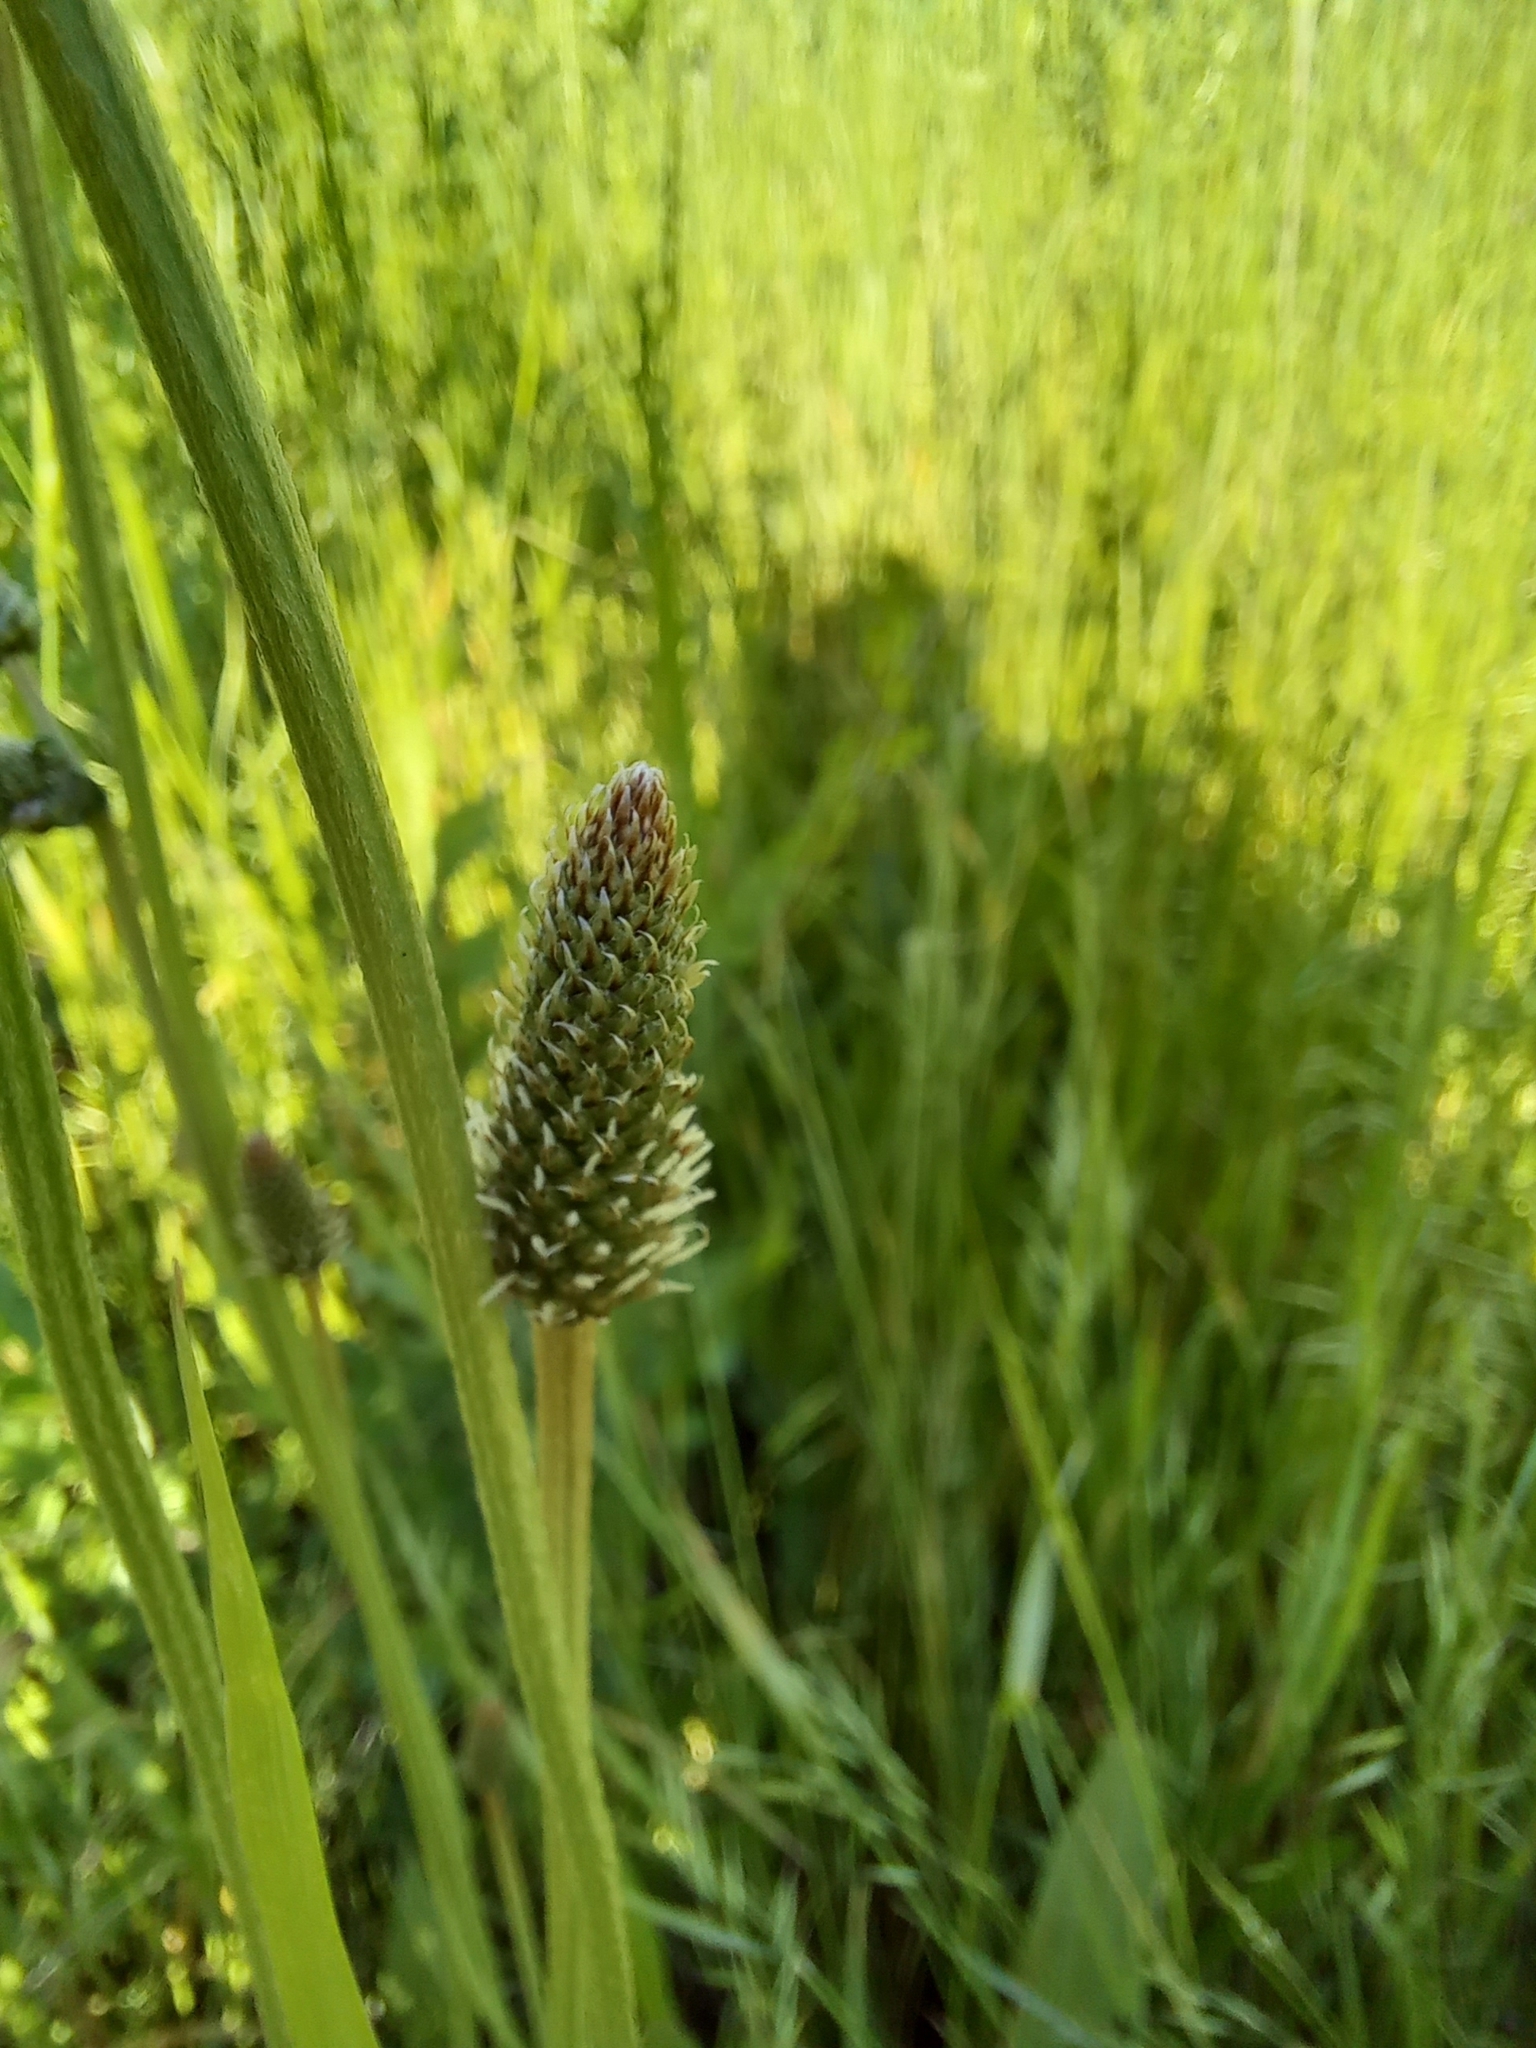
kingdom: Plantae
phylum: Tracheophyta
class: Magnoliopsida
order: Lamiales
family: Plantaginaceae
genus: Plantago
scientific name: Plantago lanceolata
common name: Ribwort plantain
